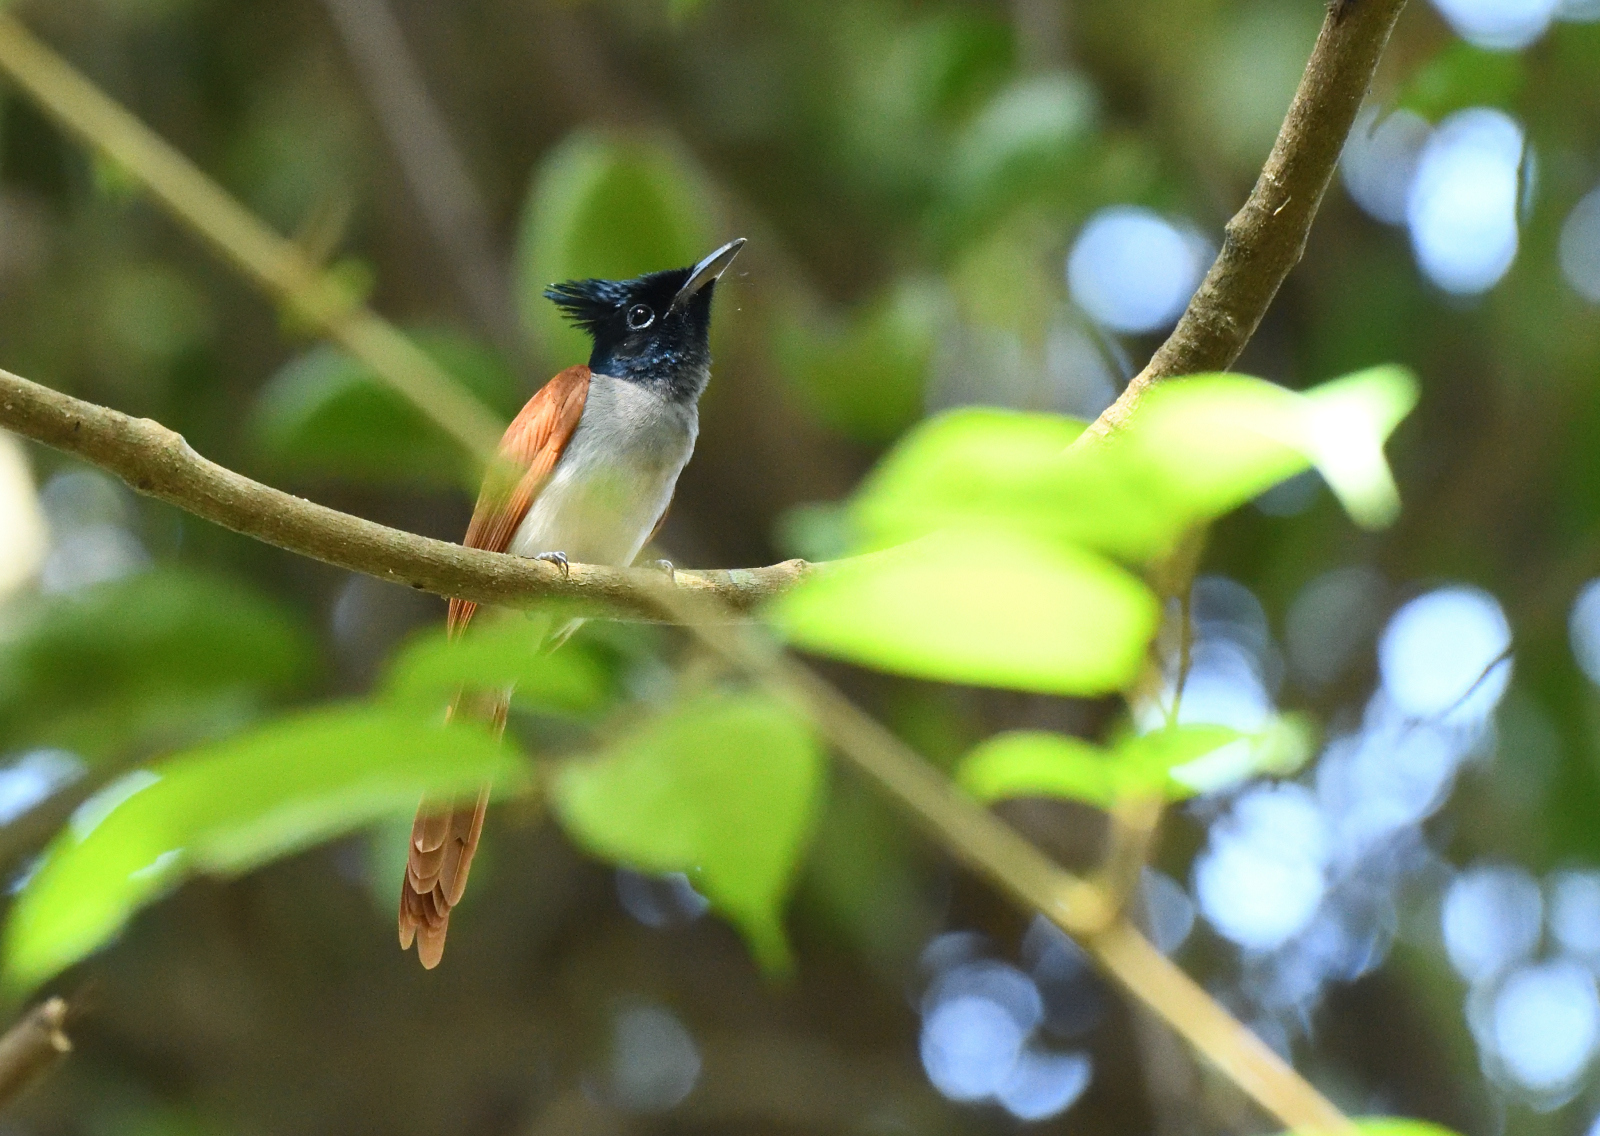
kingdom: Animalia
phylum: Chordata
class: Aves
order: Passeriformes
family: Monarchidae
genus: Terpsiphone
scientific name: Terpsiphone paradisi
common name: Indian paradise flycatcher
